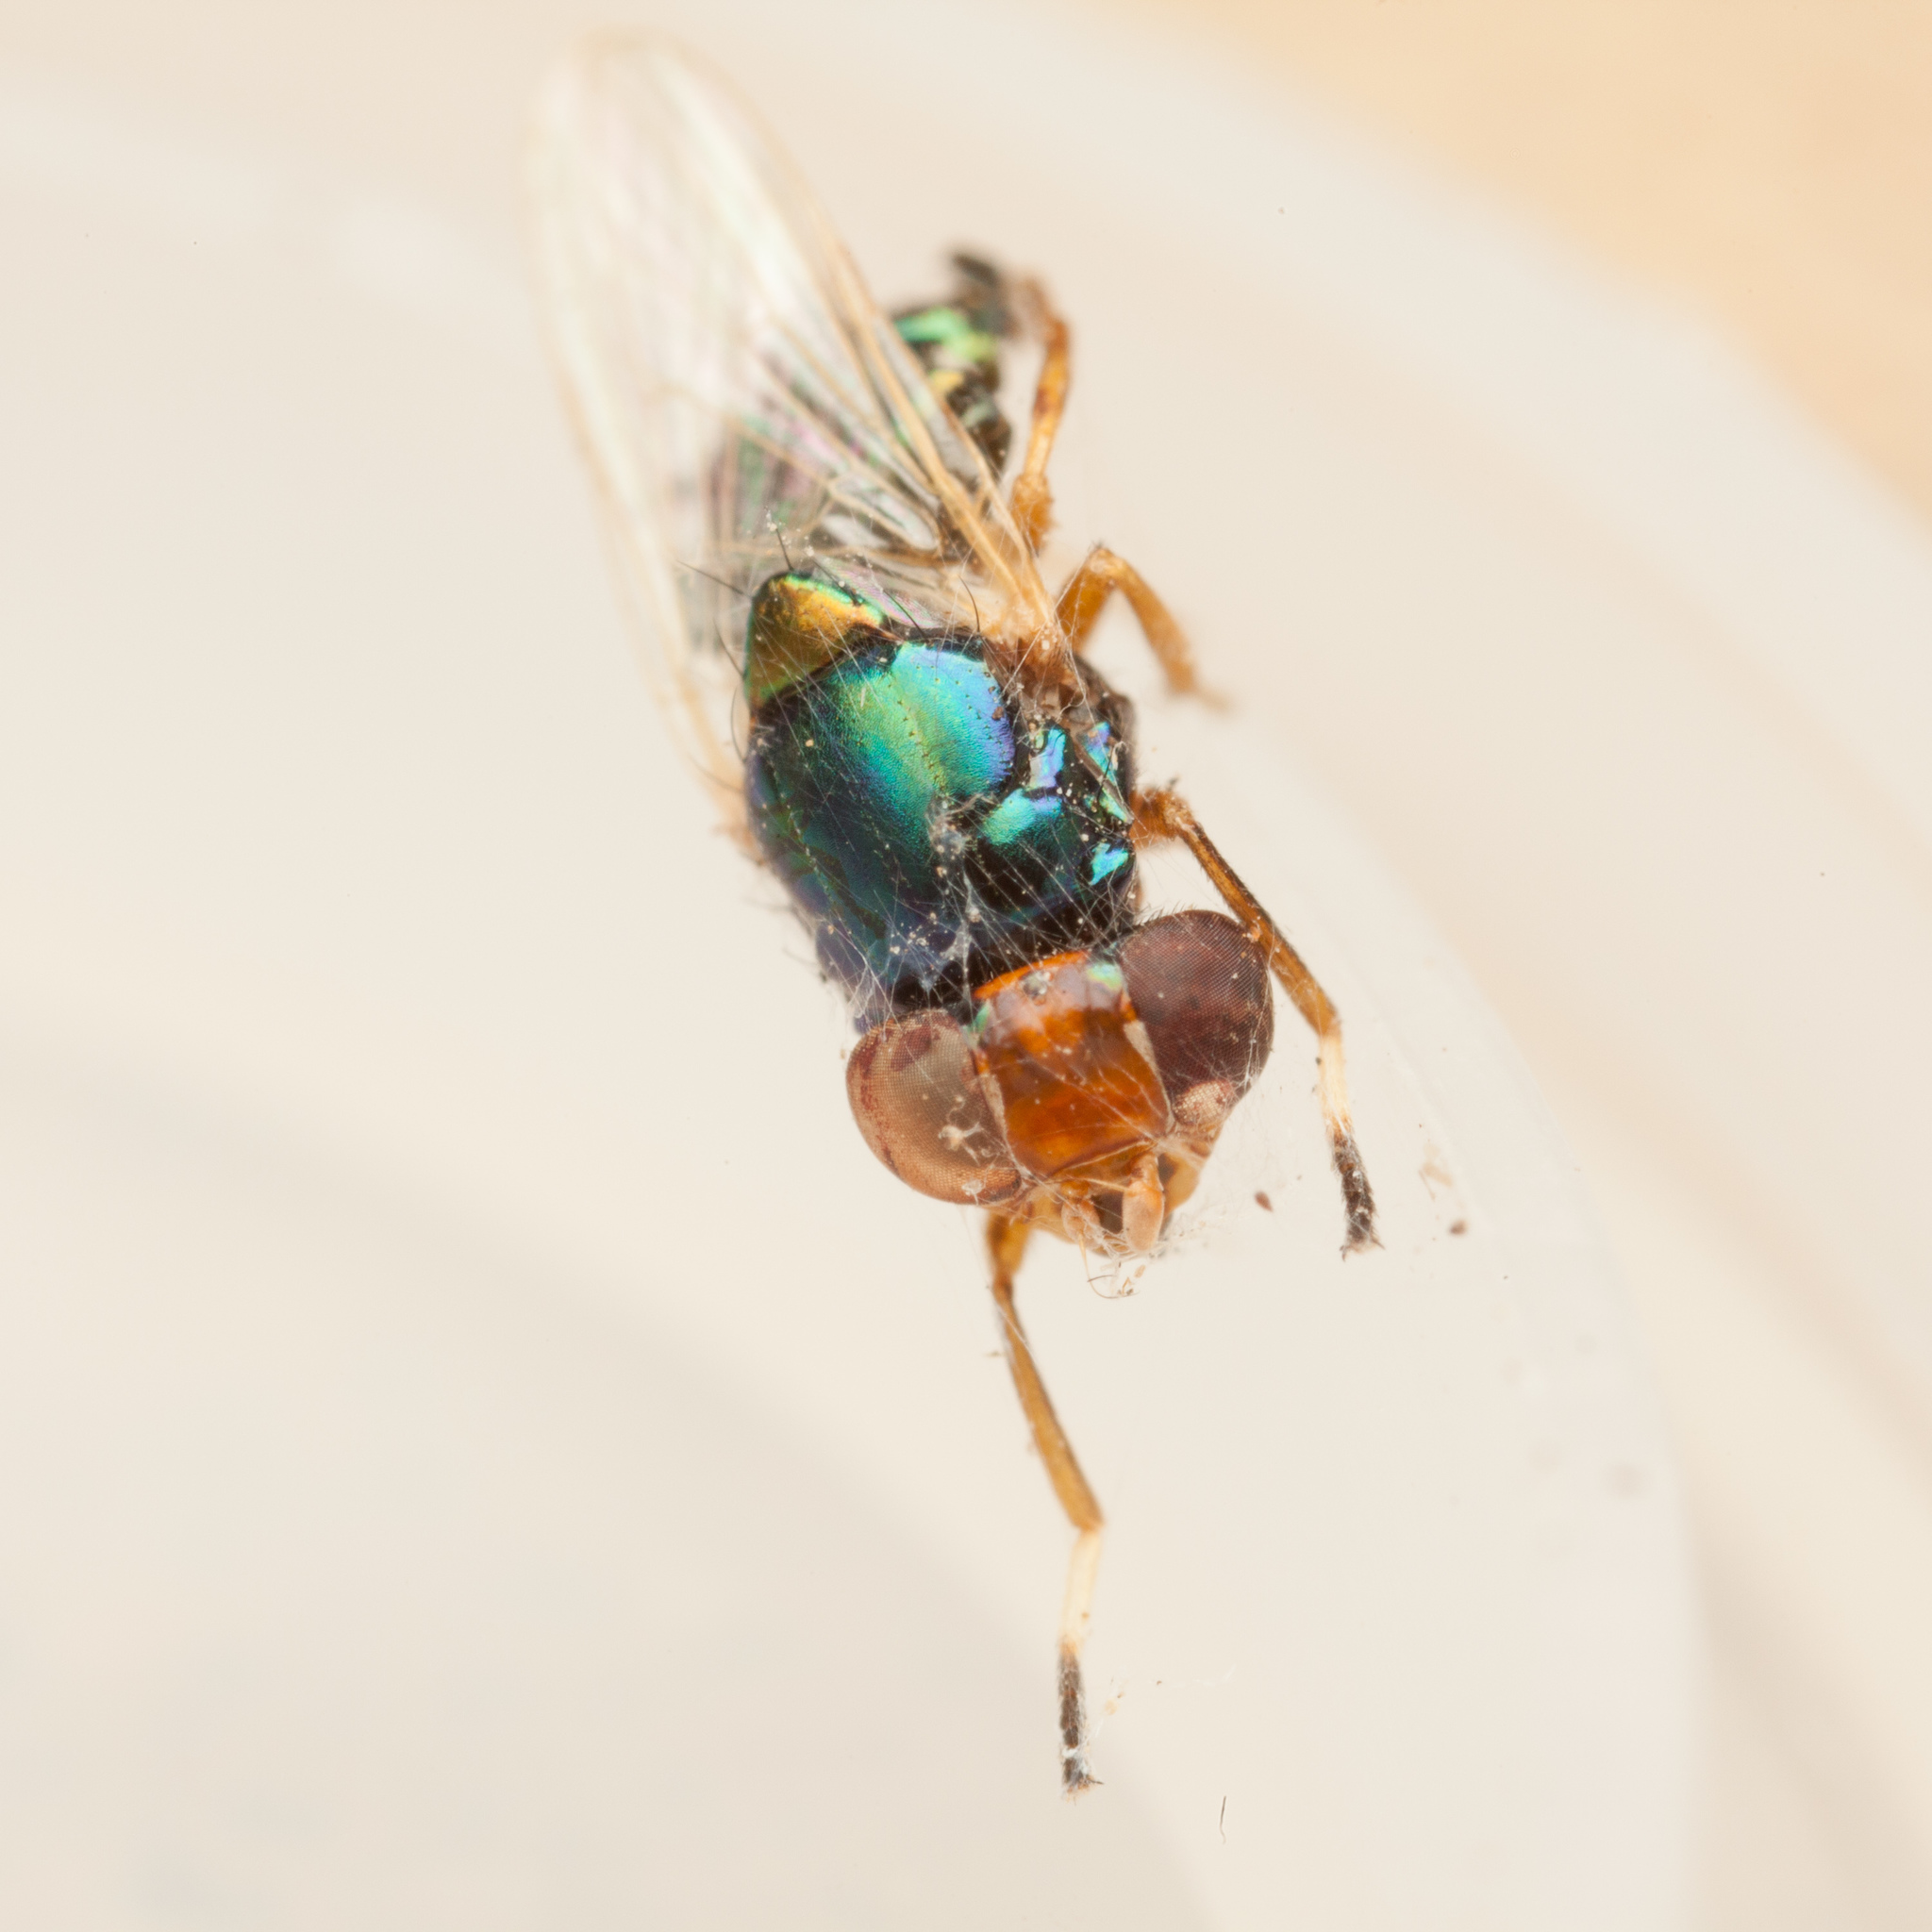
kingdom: Animalia
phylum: Arthropoda
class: Insecta
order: Diptera
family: Ulidiidae
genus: Physiphora
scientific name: Physiphora clausa
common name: Picture-winged fly
